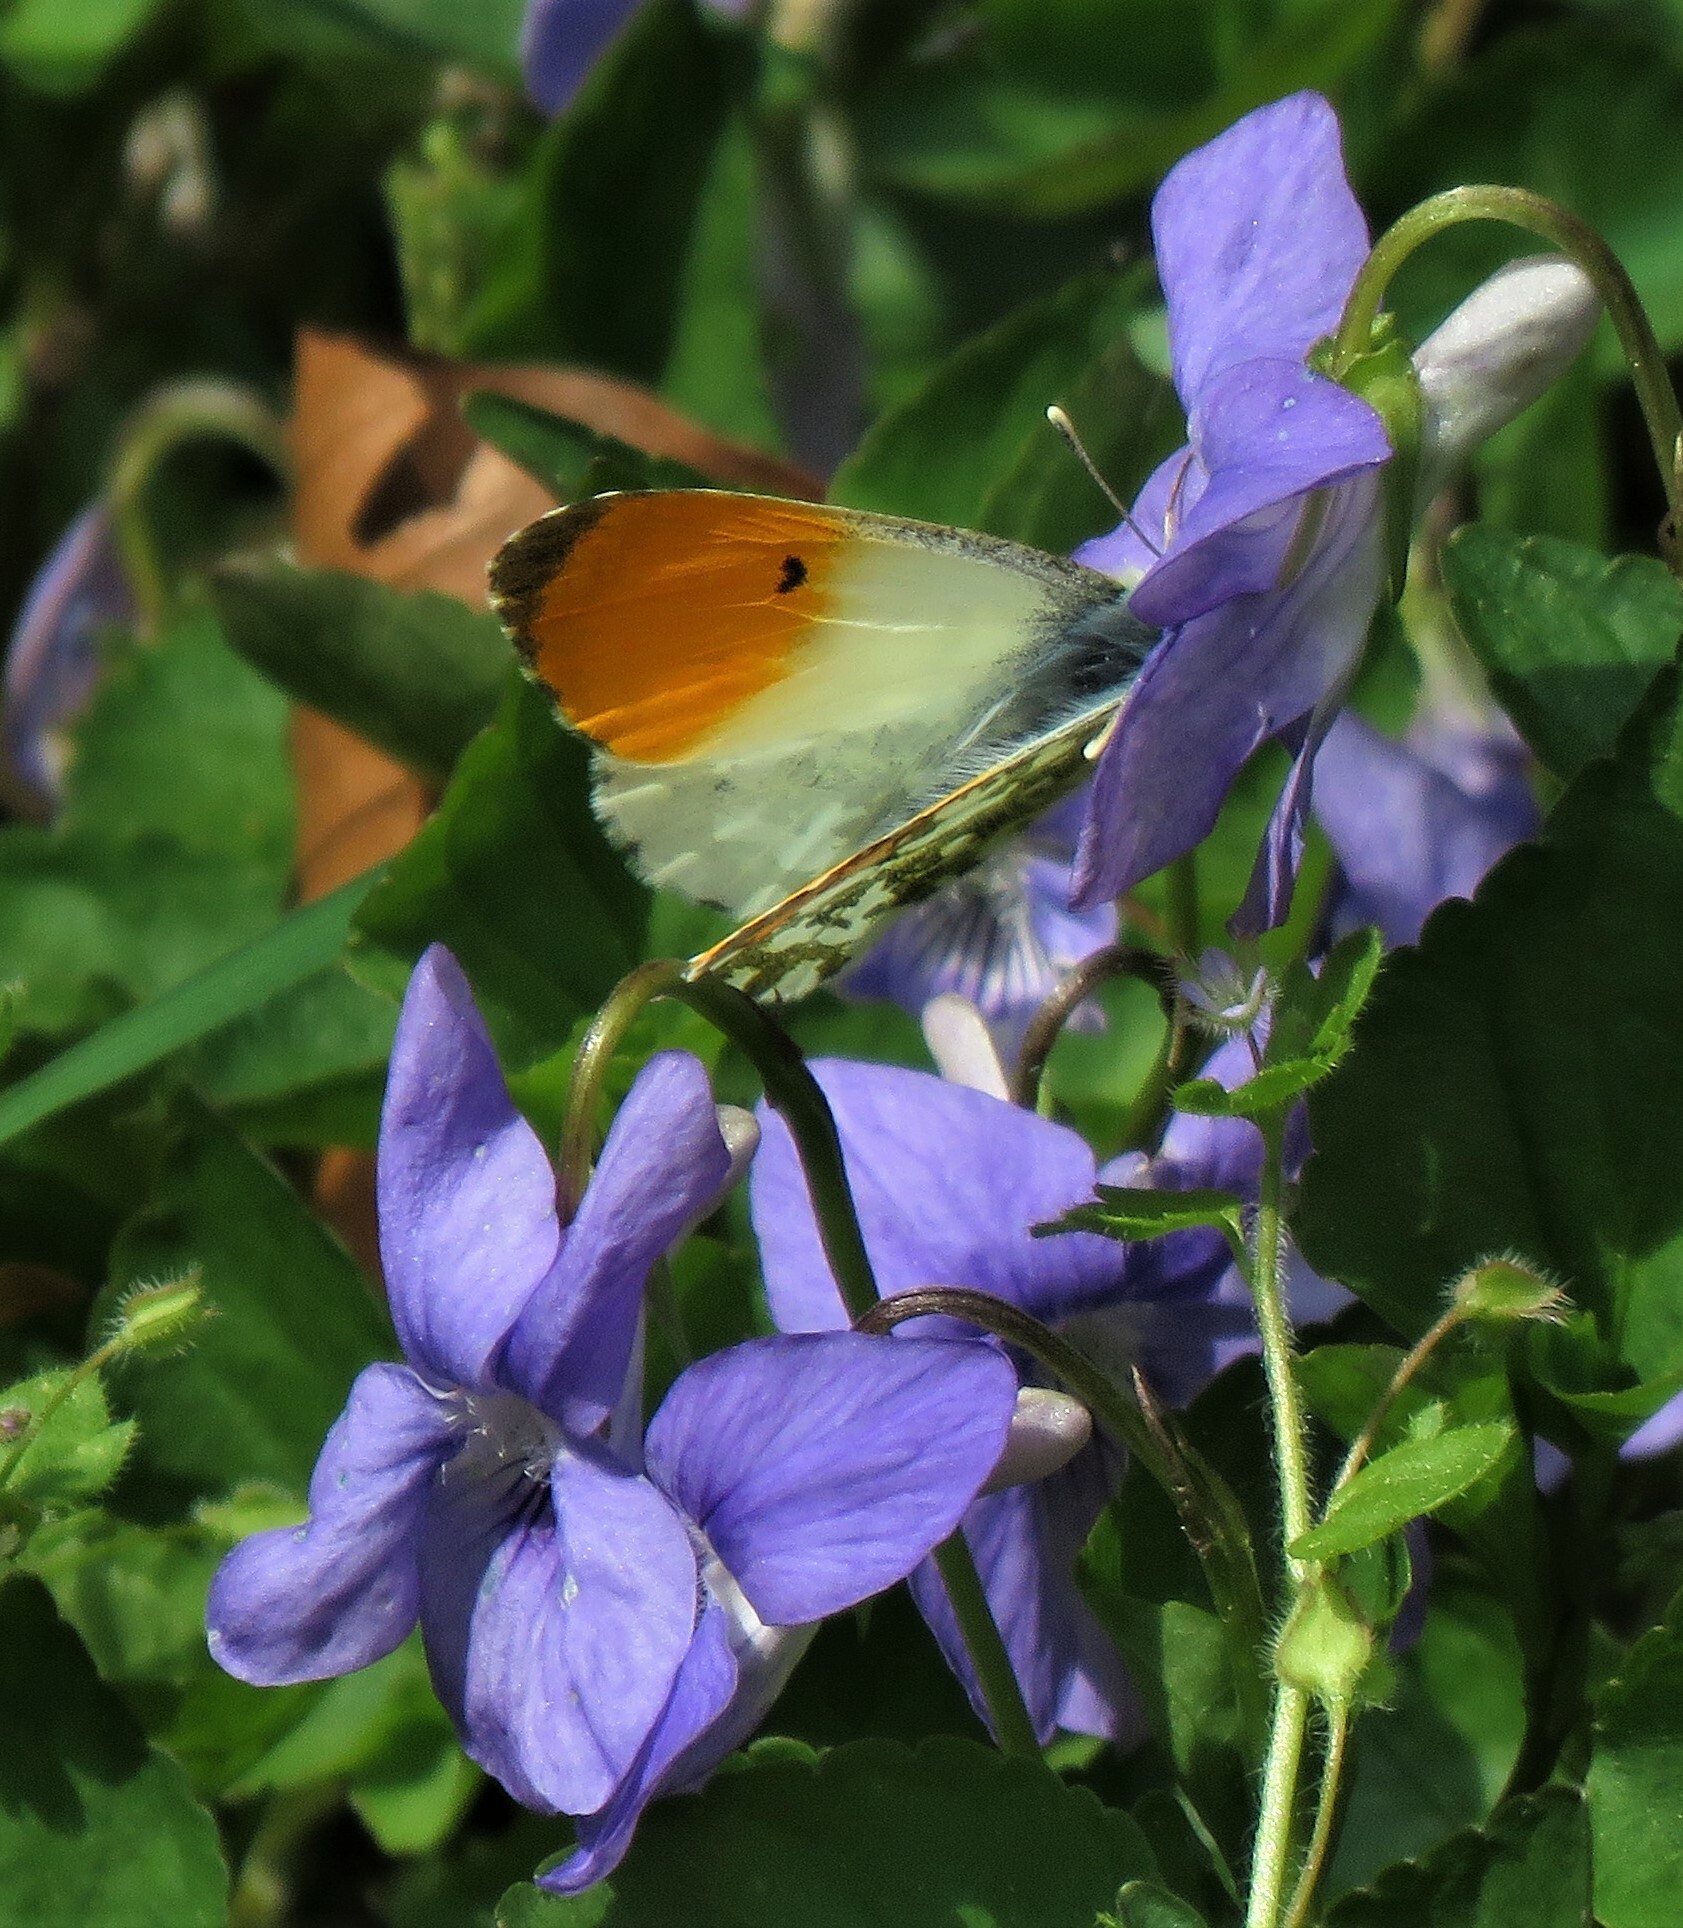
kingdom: Animalia
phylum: Arthropoda
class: Insecta
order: Lepidoptera
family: Pieridae
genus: Anthocharis
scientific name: Anthocharis cardamines
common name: Orange-tip
